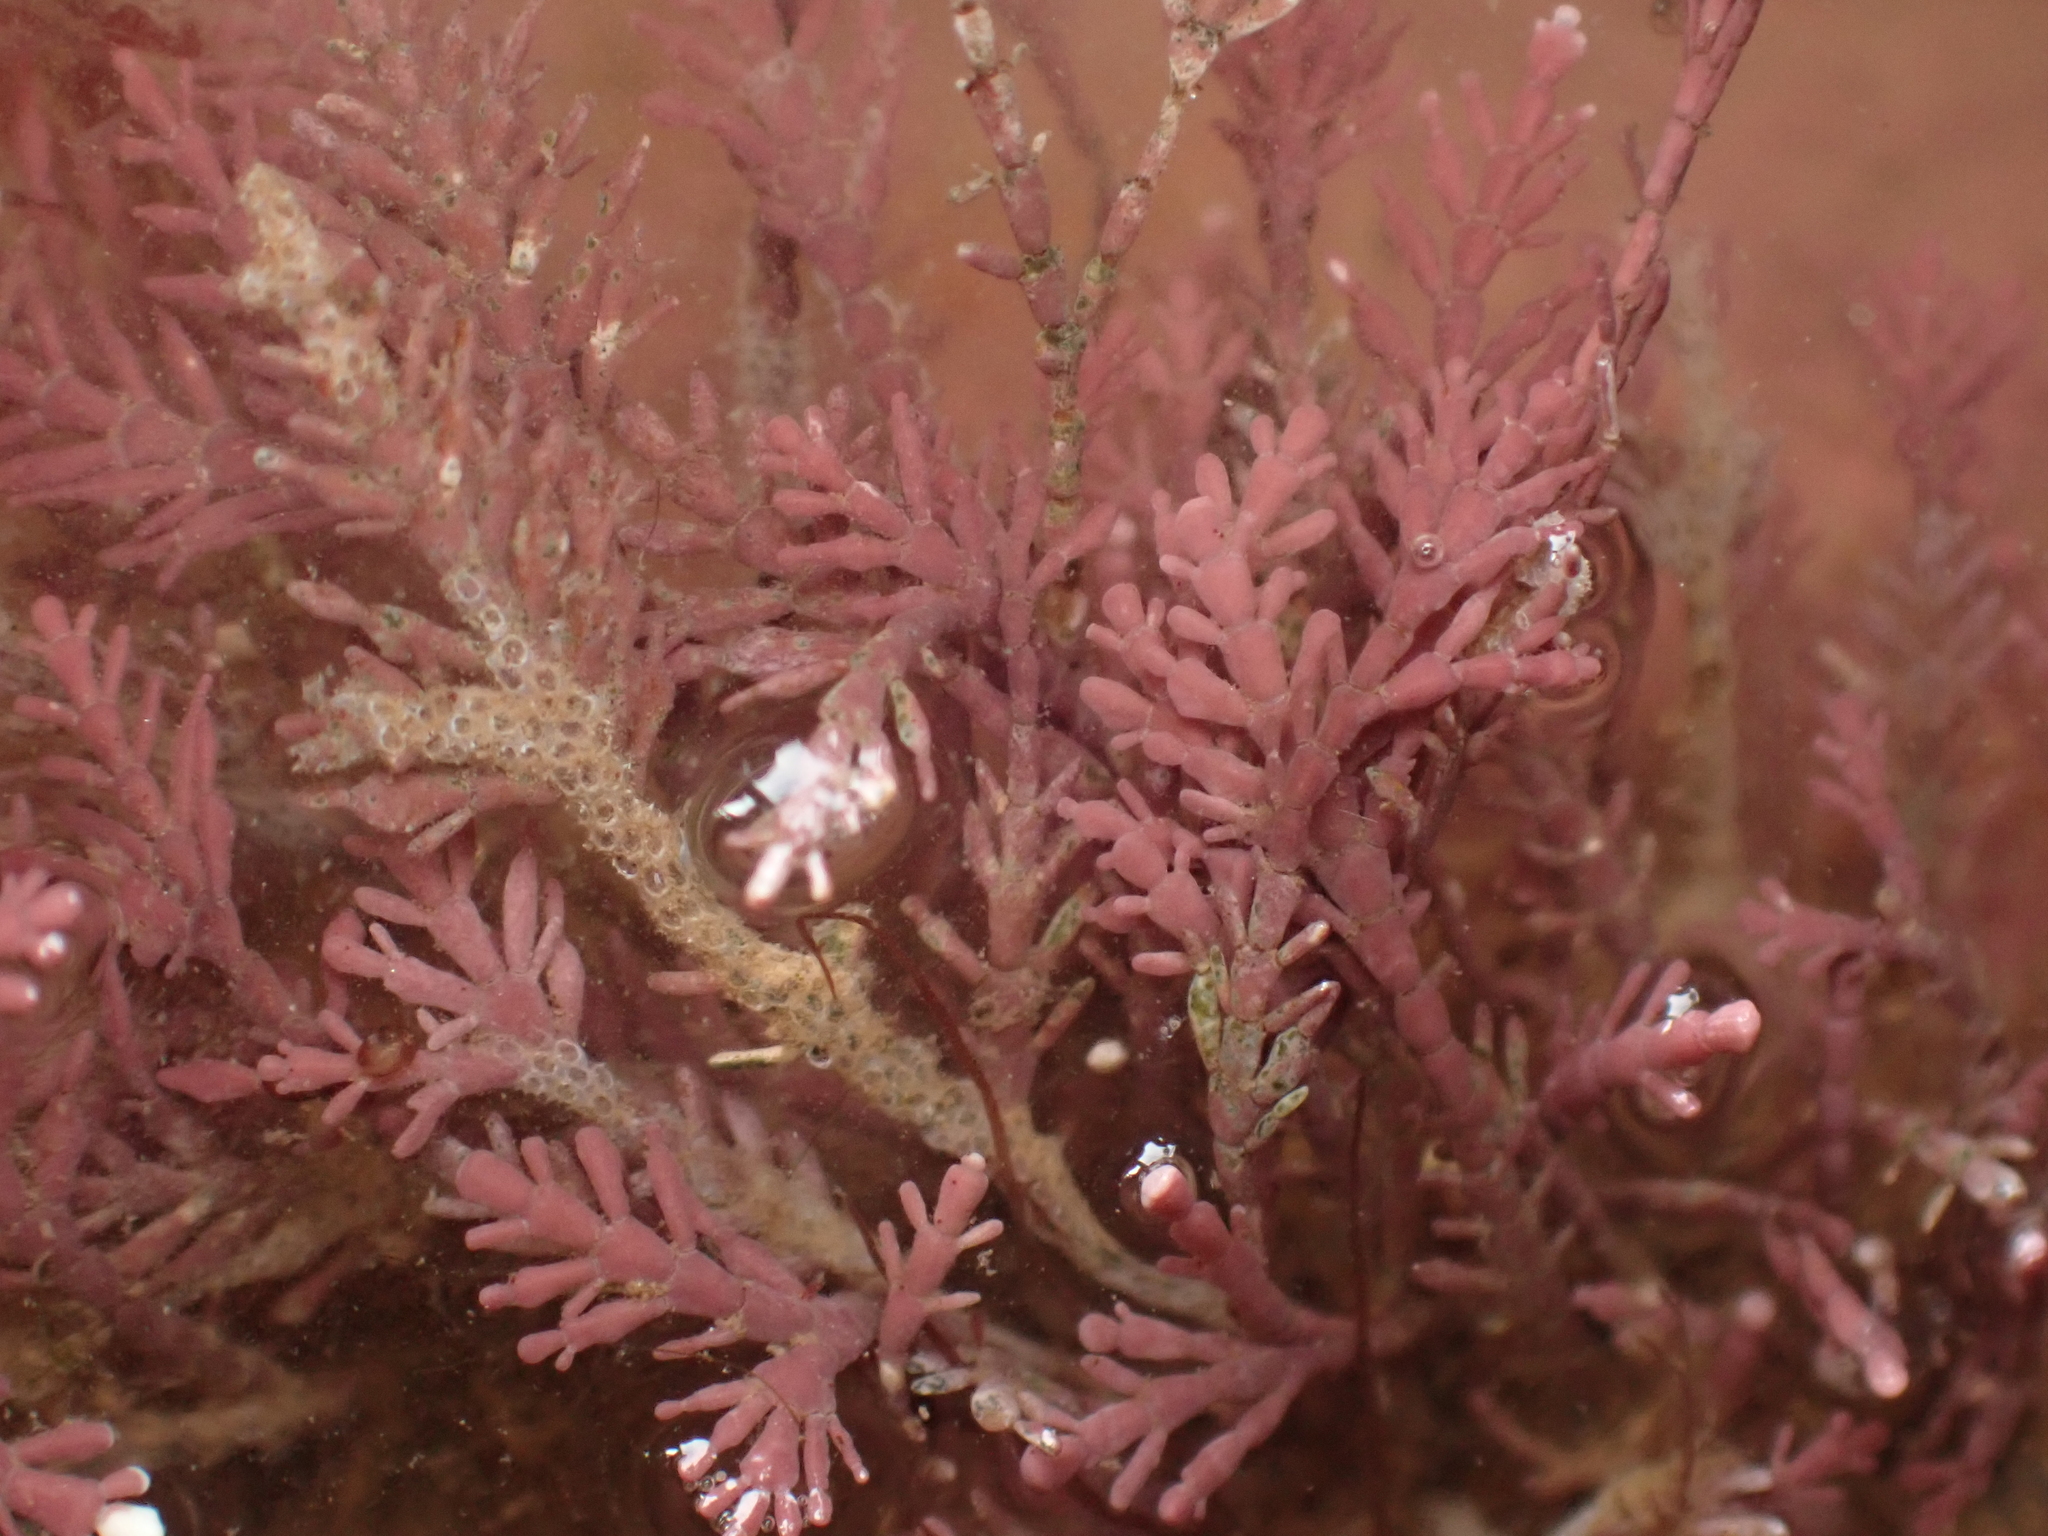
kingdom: Plantae
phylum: Rhodophyta
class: Florideophyceae
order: Corallinales
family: Corallinaceae
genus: Corallina
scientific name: Corallina officinalis
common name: Coral weed
